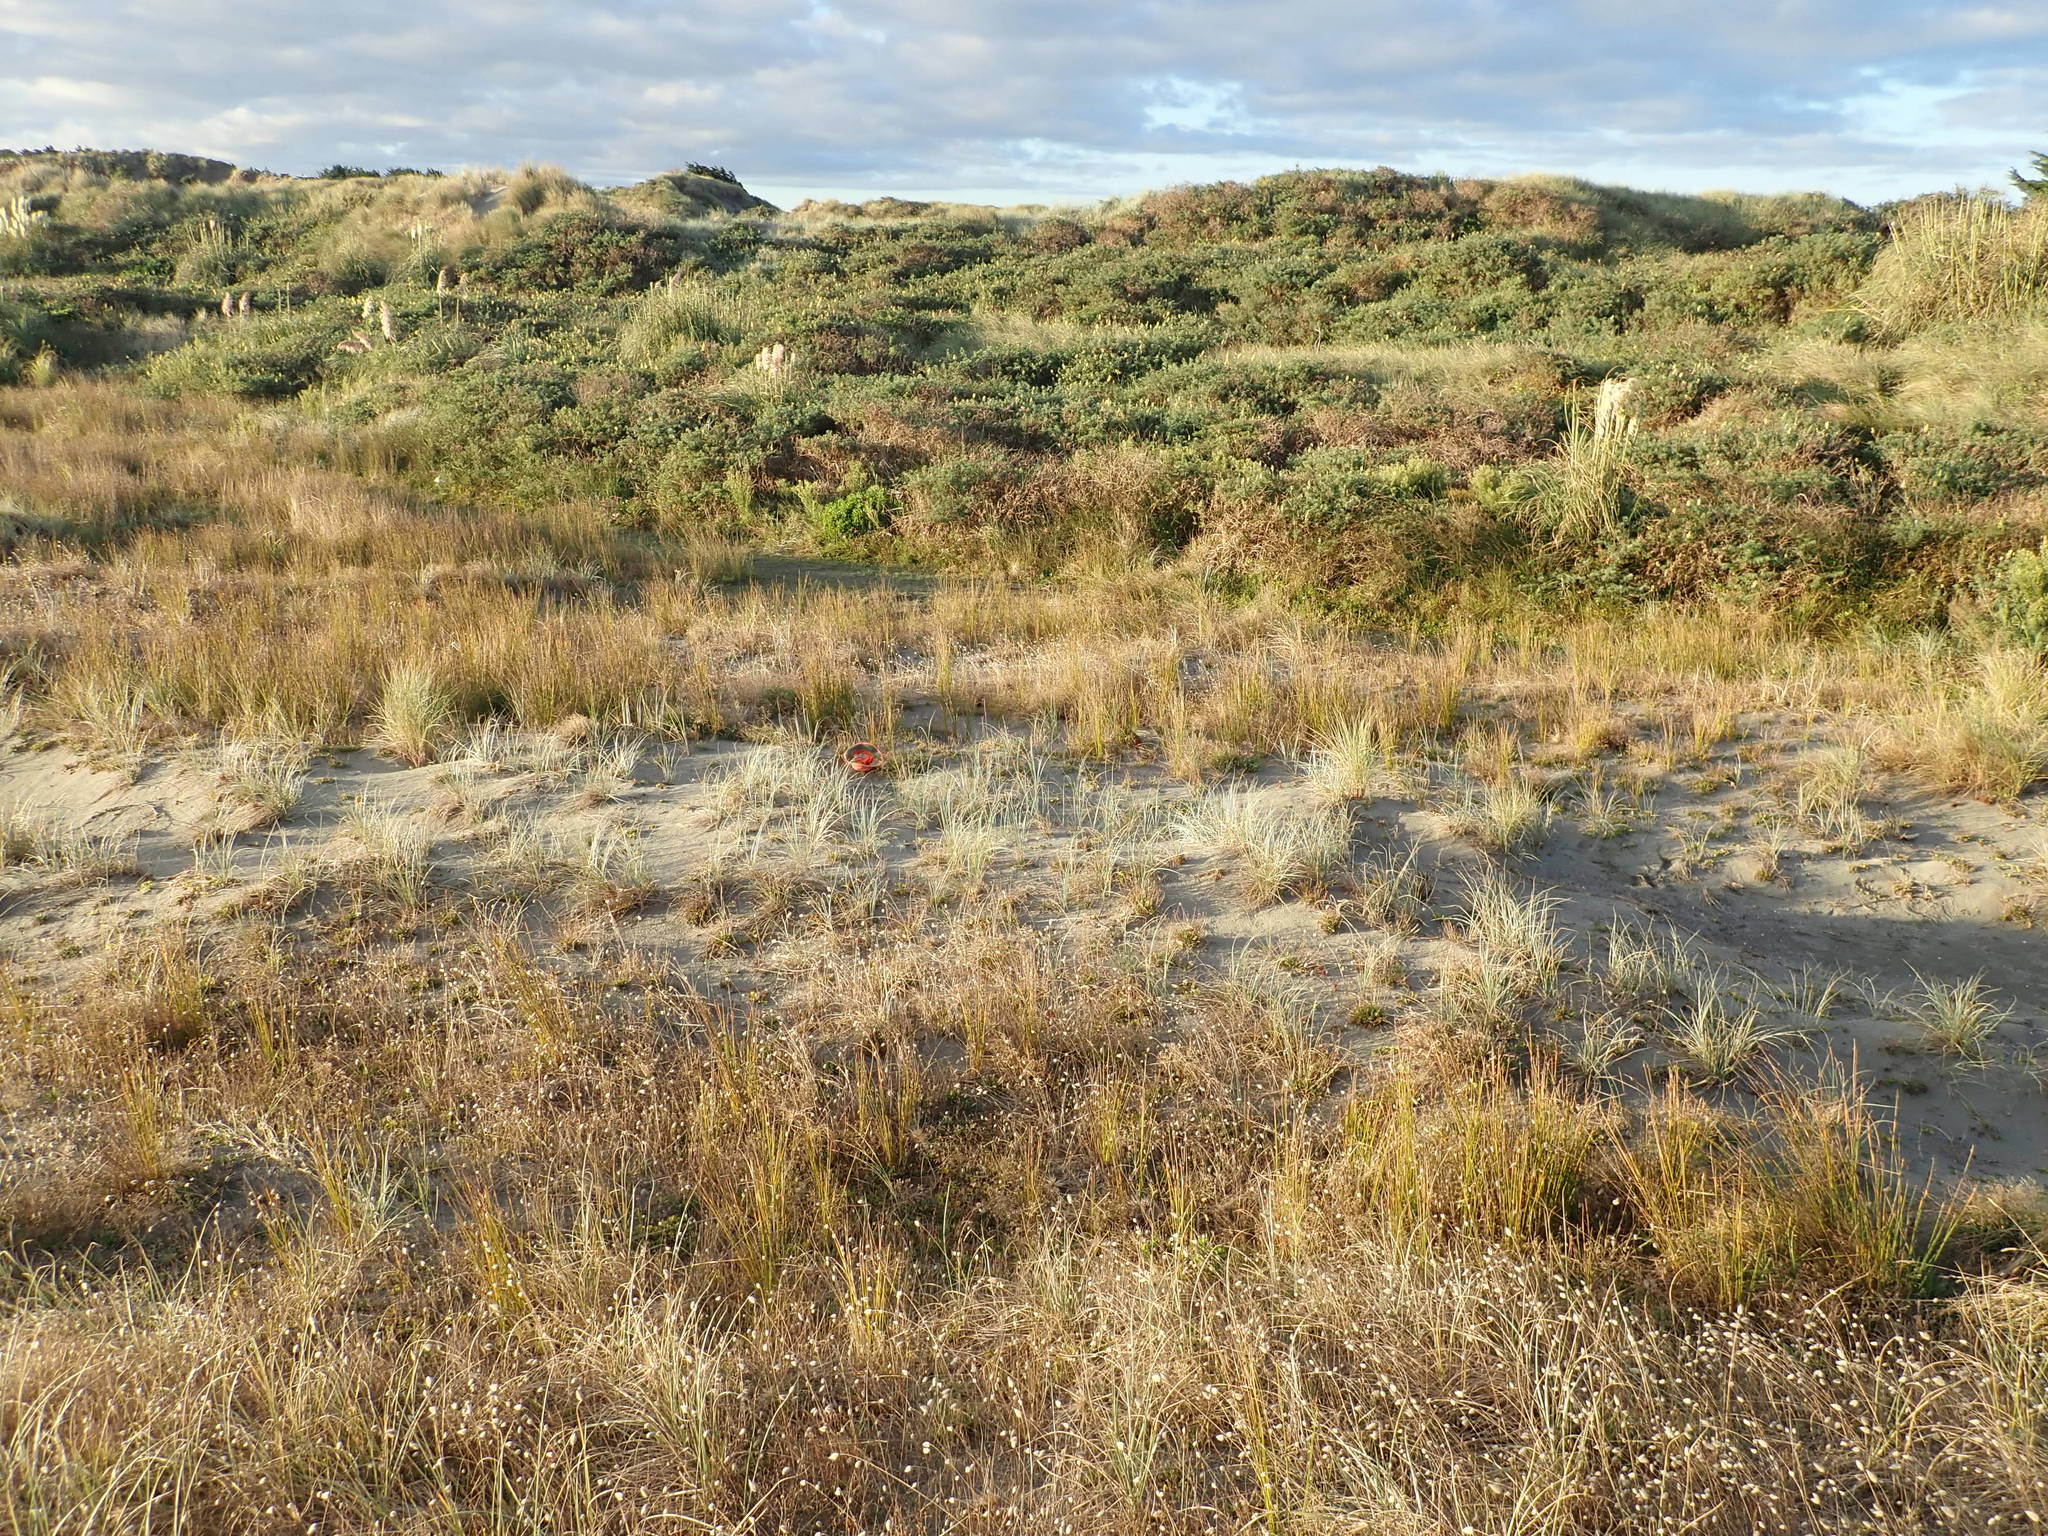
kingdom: Plantae
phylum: Tracheophyta
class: Magnoliopsida
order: Malvales
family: Thymelaeaceae
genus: Pimelea
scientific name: Pimelea villosa
